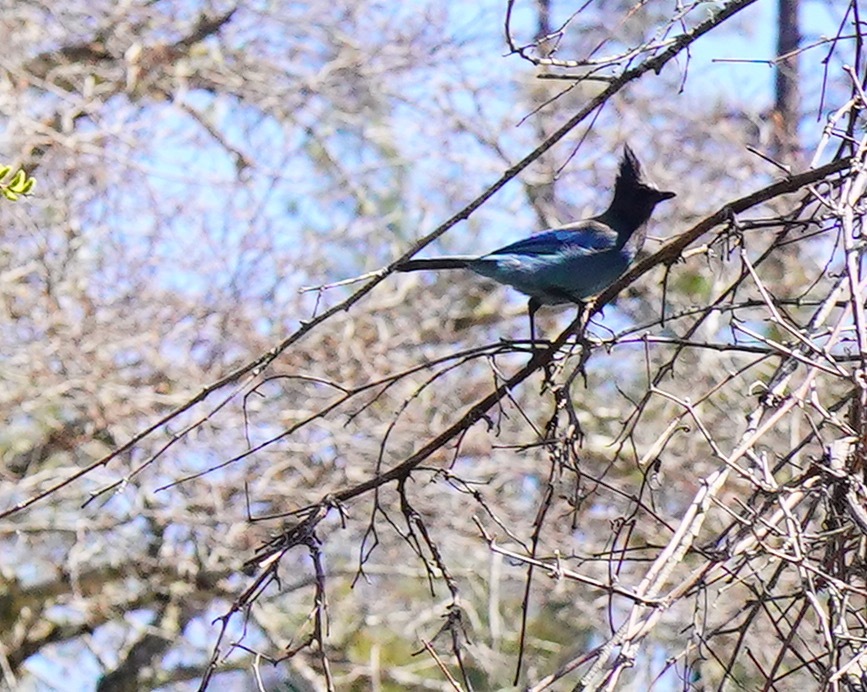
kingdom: Animalia
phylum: Chordata
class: Aves
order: Passeriformes
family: Corvidae
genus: Cyanocitta
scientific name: Cyanocitta stelleri
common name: Steller's jay
